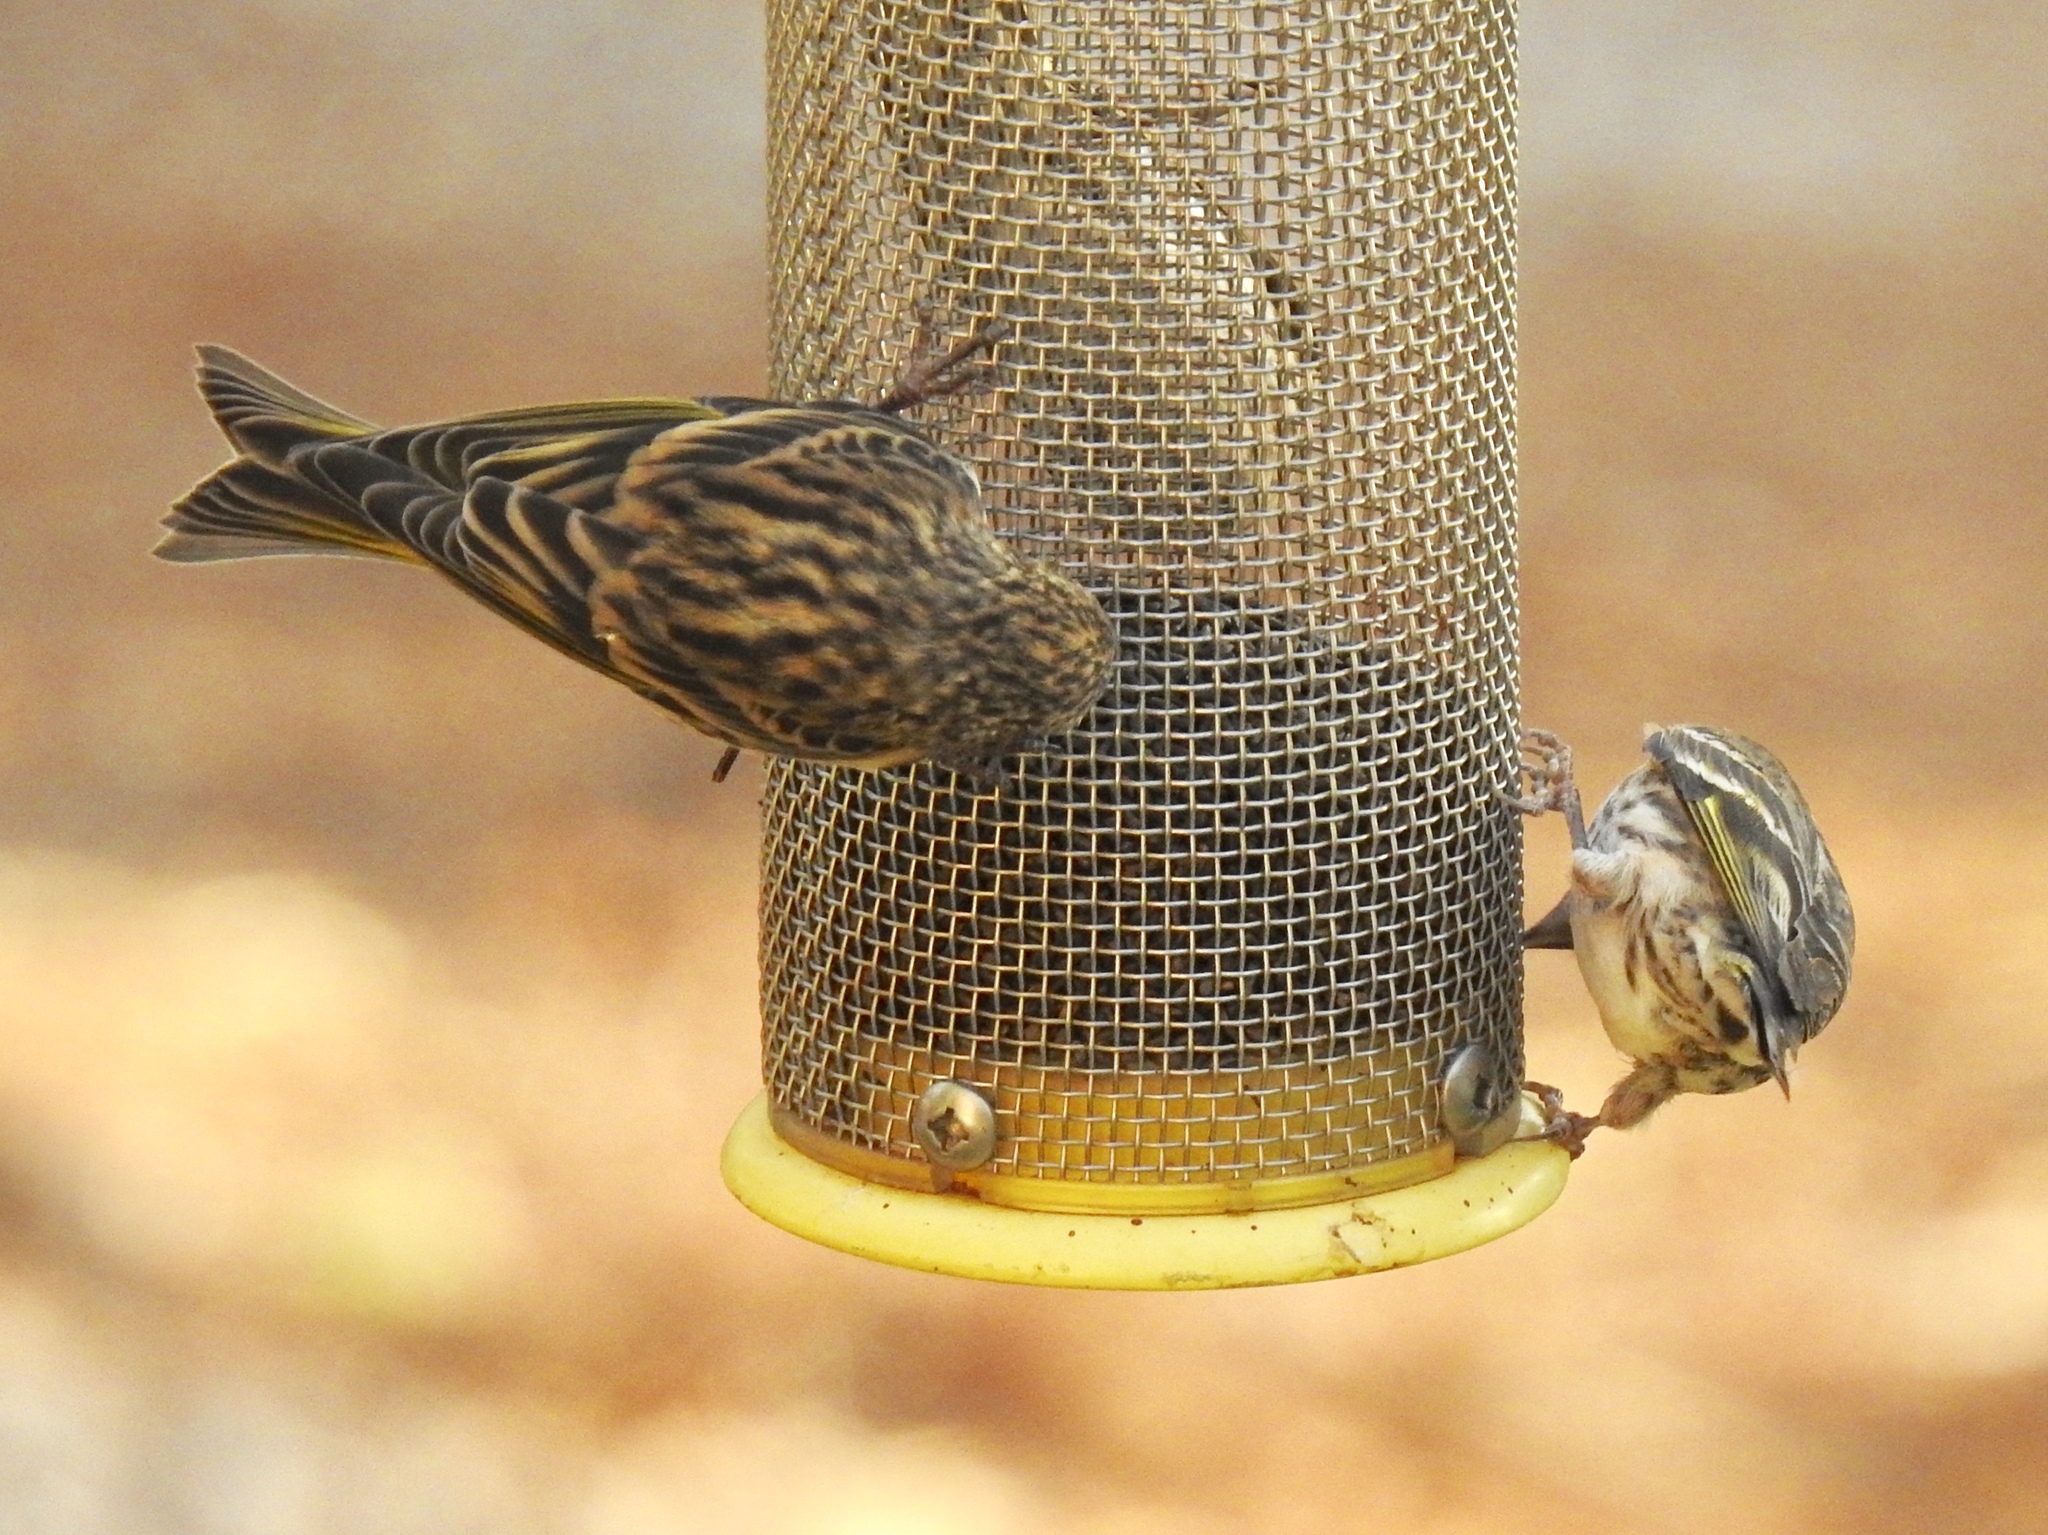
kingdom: Animalia
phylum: Chordata
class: Aves
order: Passeriformes
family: Fringillidae
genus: Spinus
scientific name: Spinus pinus
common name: Pine siskin
